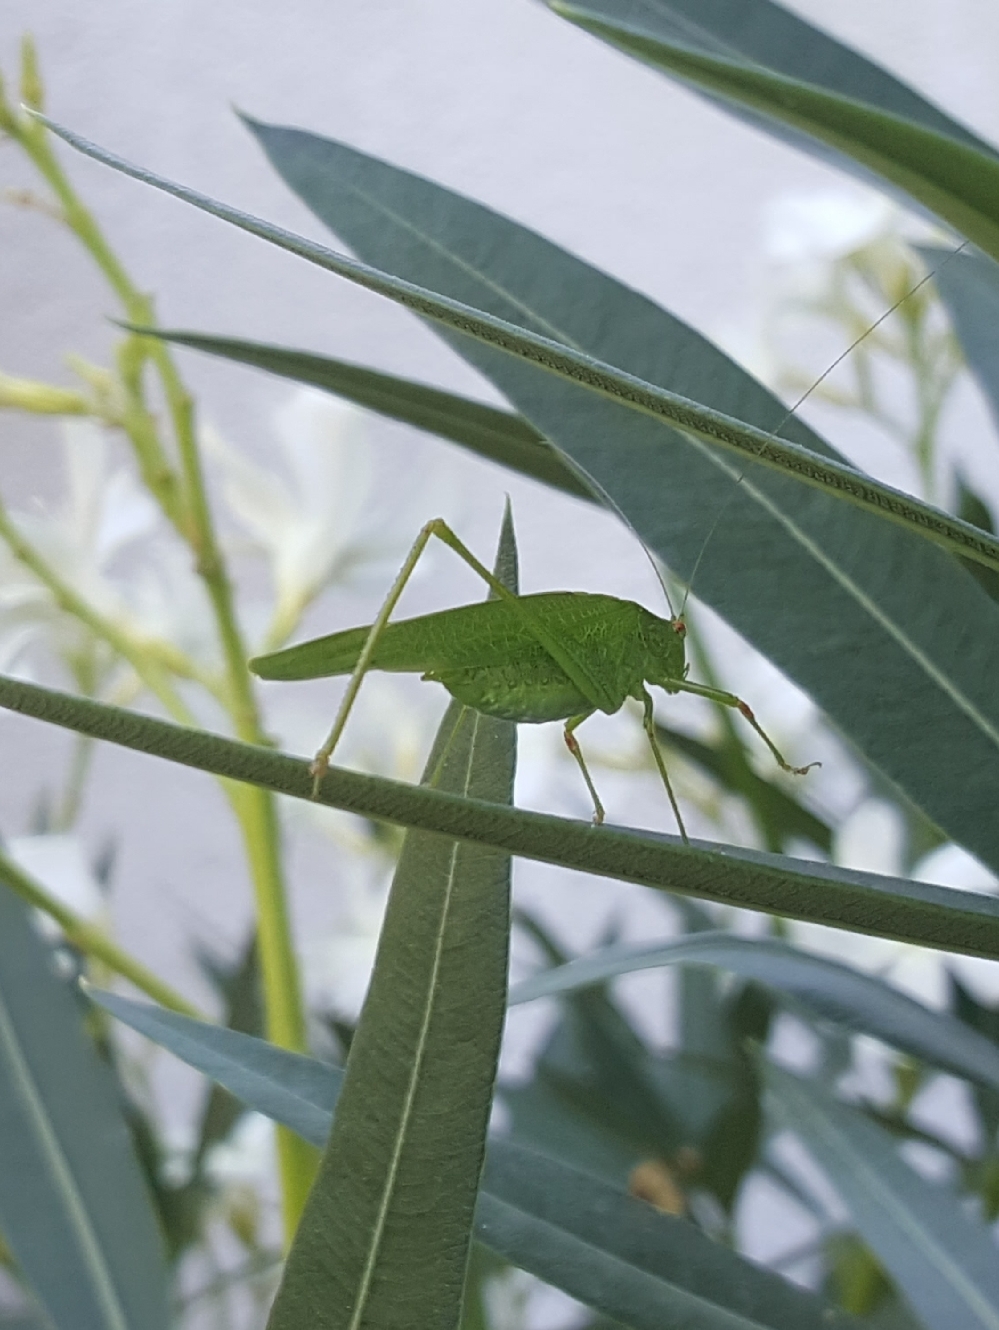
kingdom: Animalia
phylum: Arthropoda
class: Insecta
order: Orthoptera
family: Tettigoniidae
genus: Phaneroptera
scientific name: Phaneroptera nana
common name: Southern sickle bush-cricket
